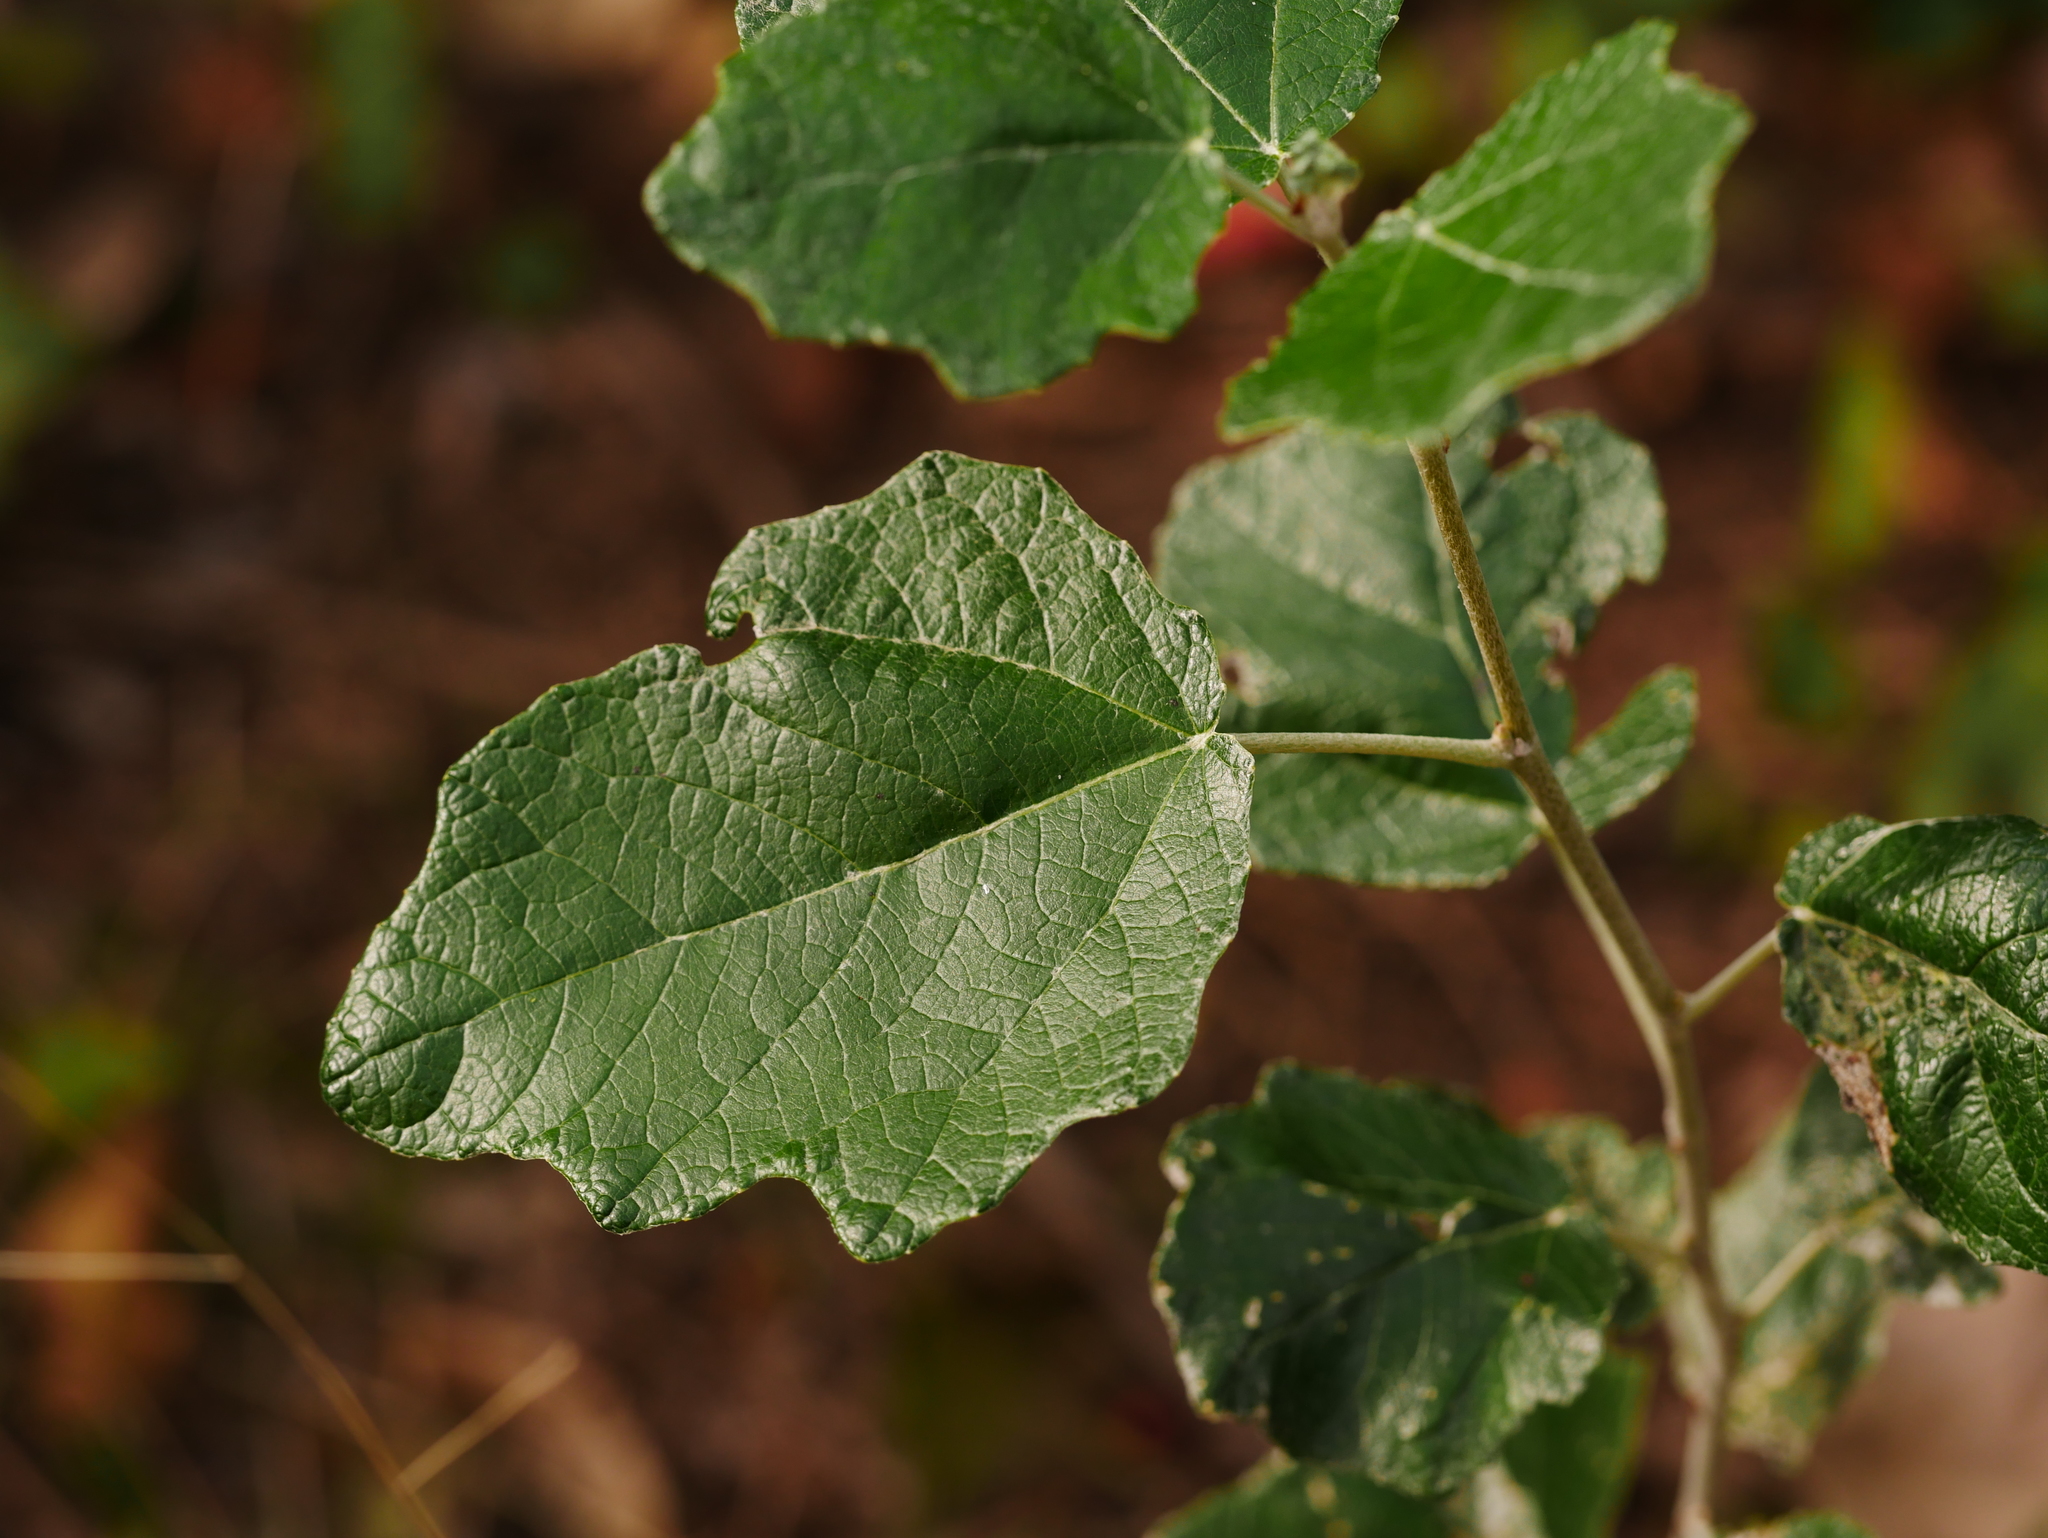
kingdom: Plantae
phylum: Tracheophyta
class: Magnoliopsida
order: Malpighiales
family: Salicaceae
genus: Populus
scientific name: Populus alba
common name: White poplar
